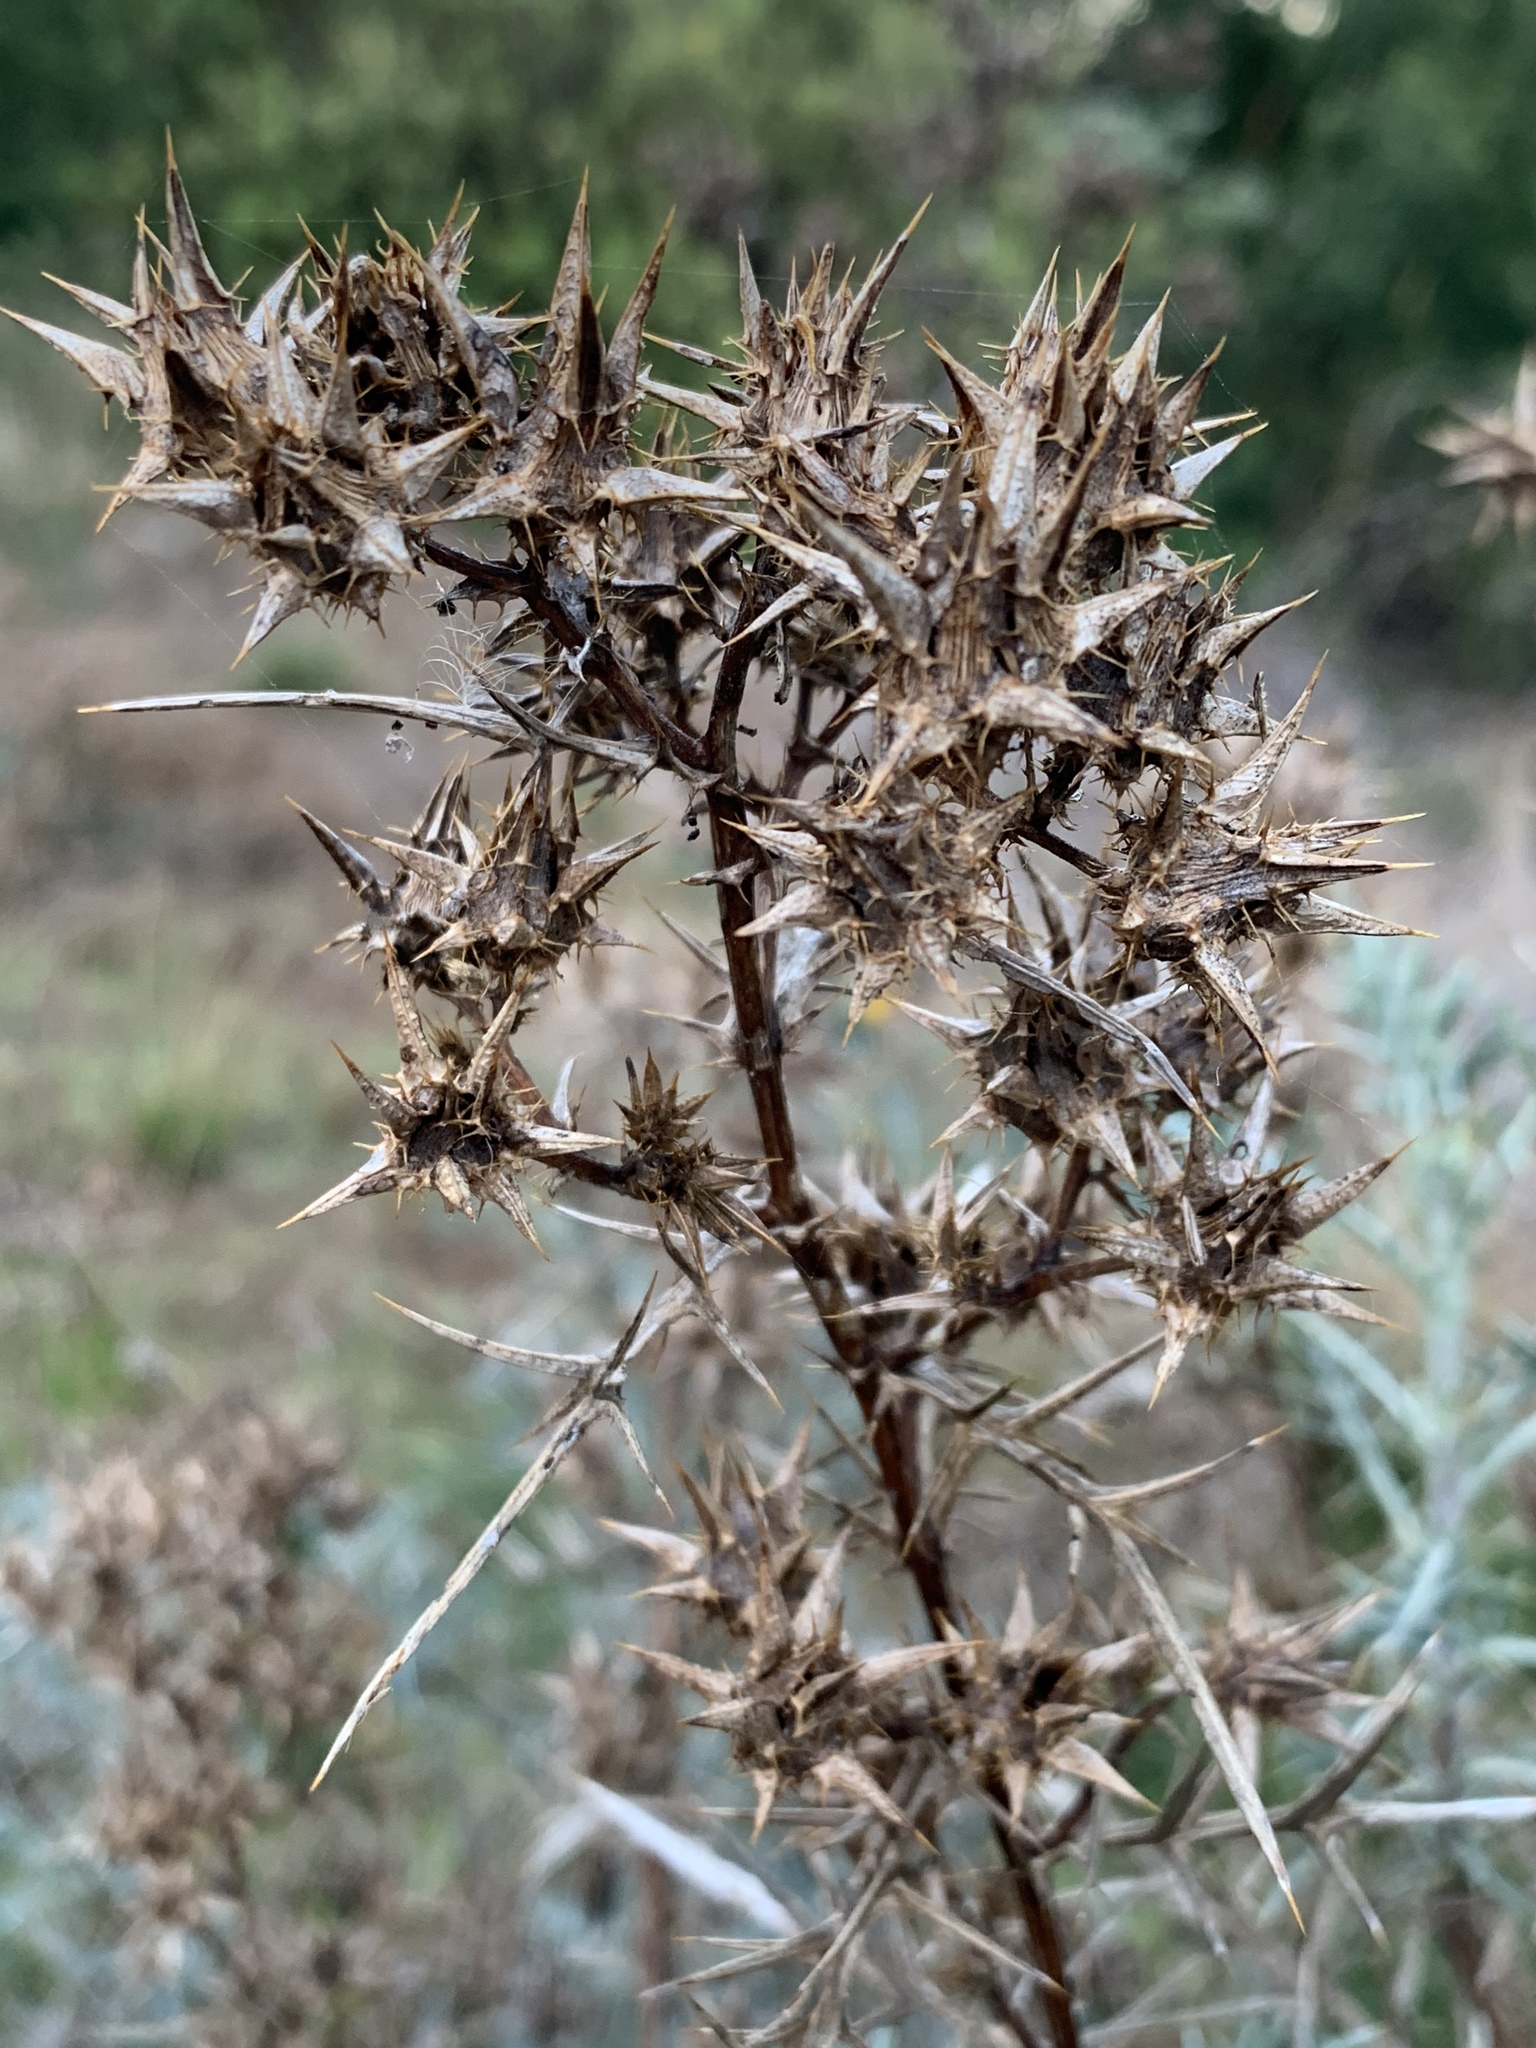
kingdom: Plantae
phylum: Tracheophyta
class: Magnoliopsida
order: Asterales
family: Asteraceae
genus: Berkheya
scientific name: Berkheya rigida
